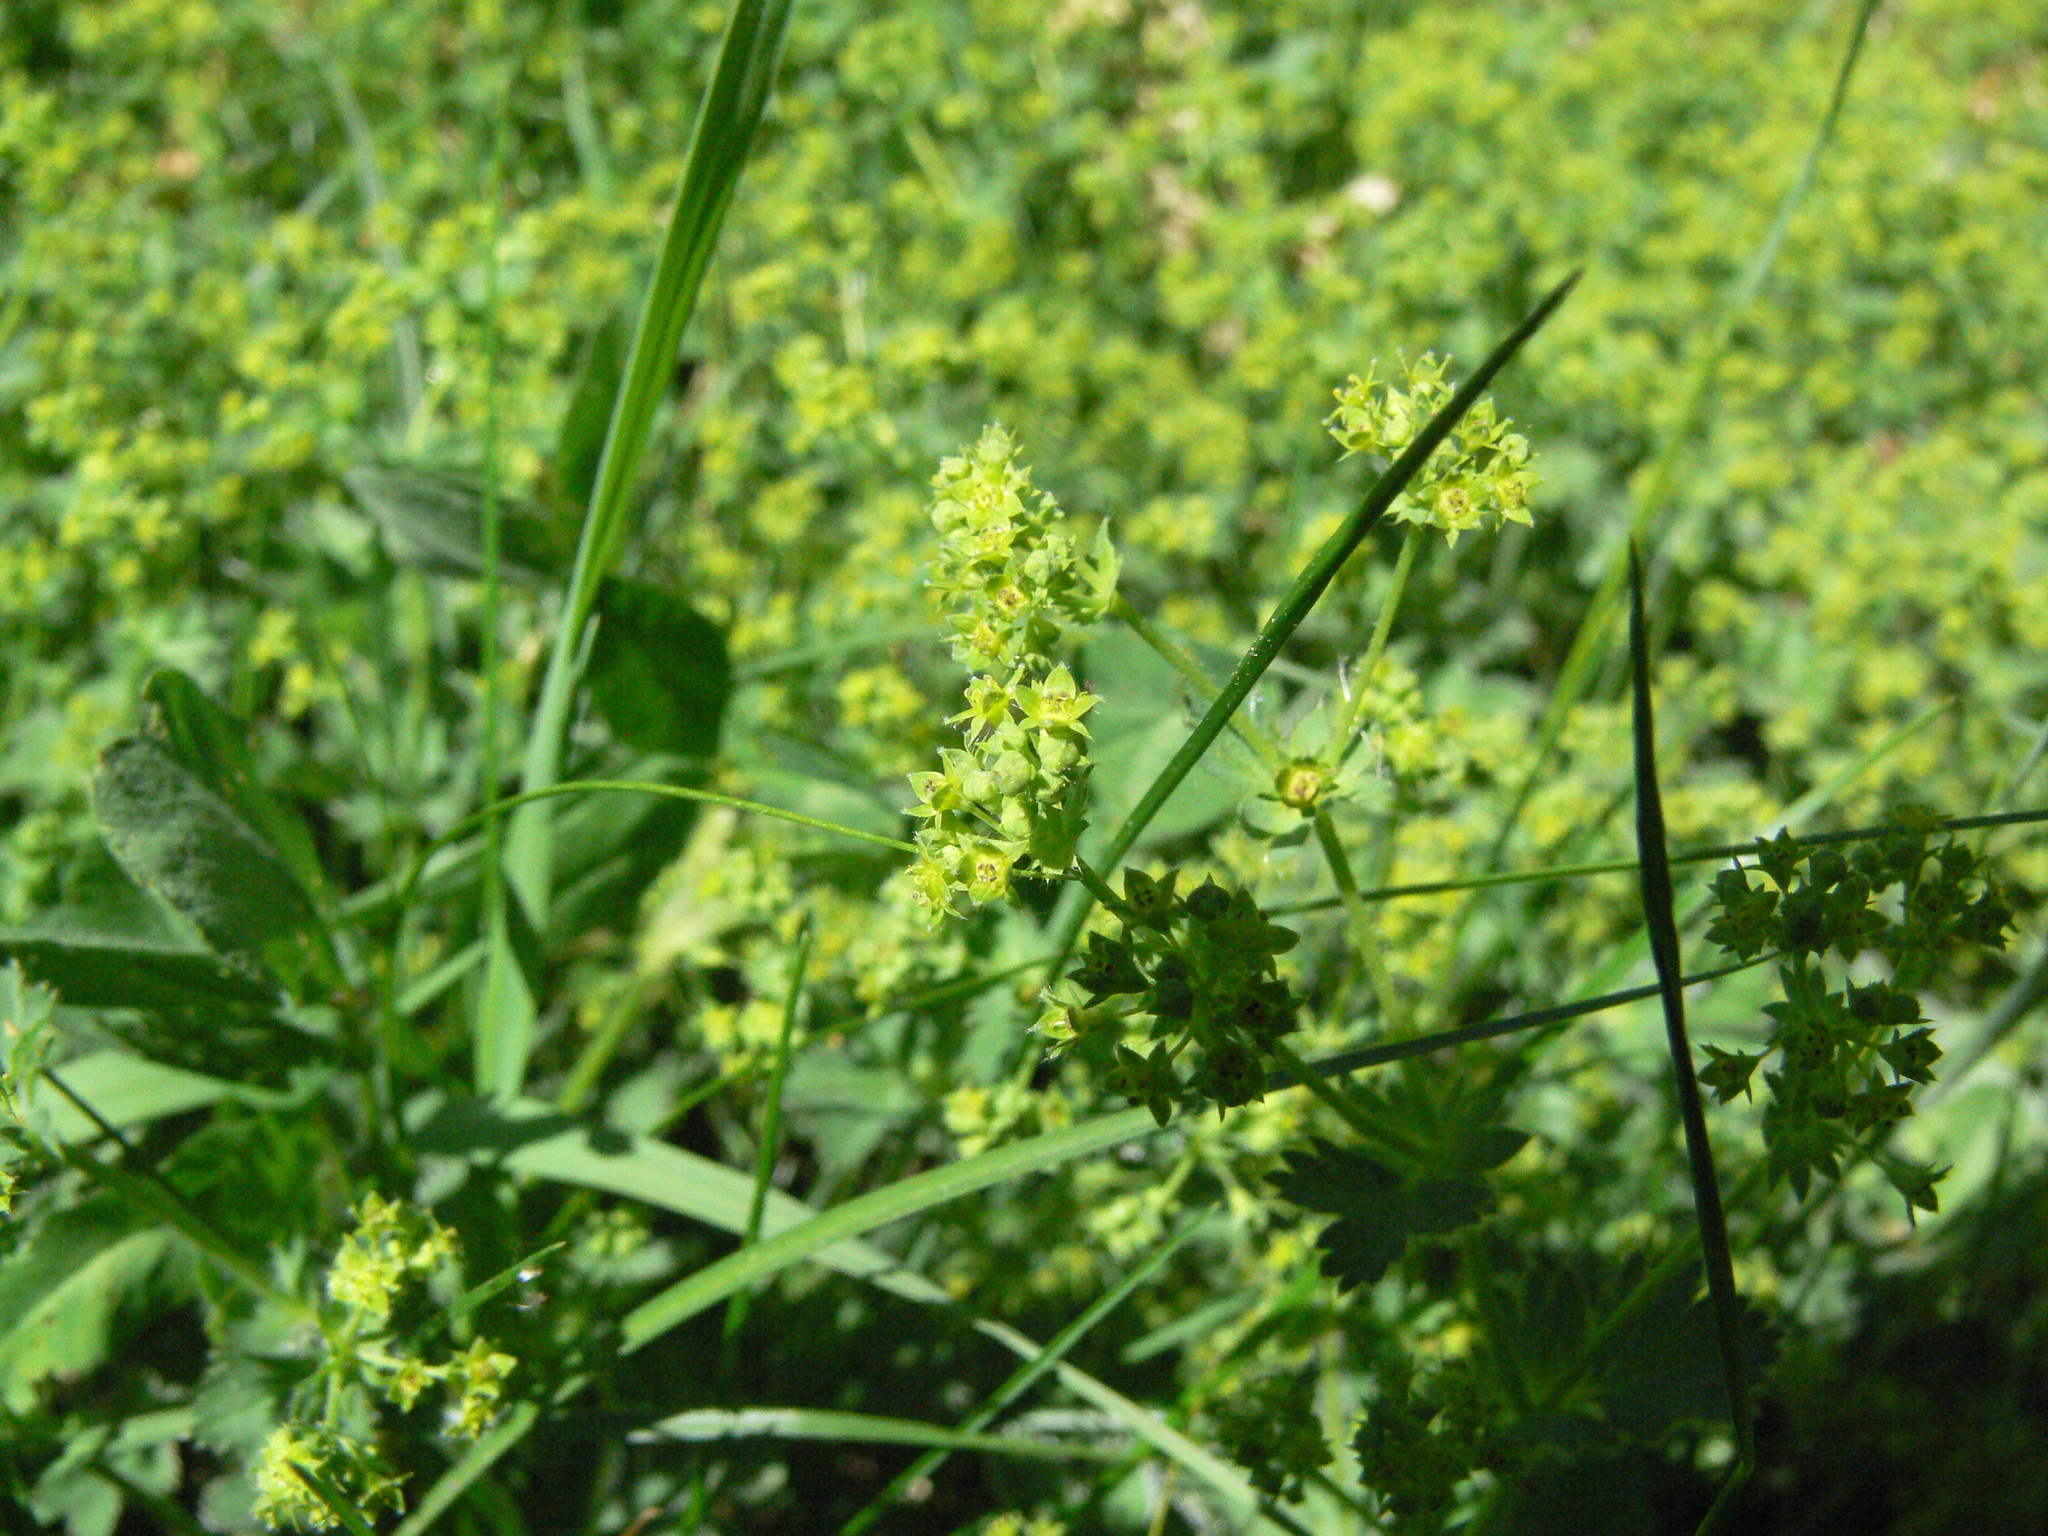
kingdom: Plantae
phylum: Tracheophyta
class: Magnoliopsida
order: Rosales
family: Rosaceae
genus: Alchemilla
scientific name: Alchemilla
